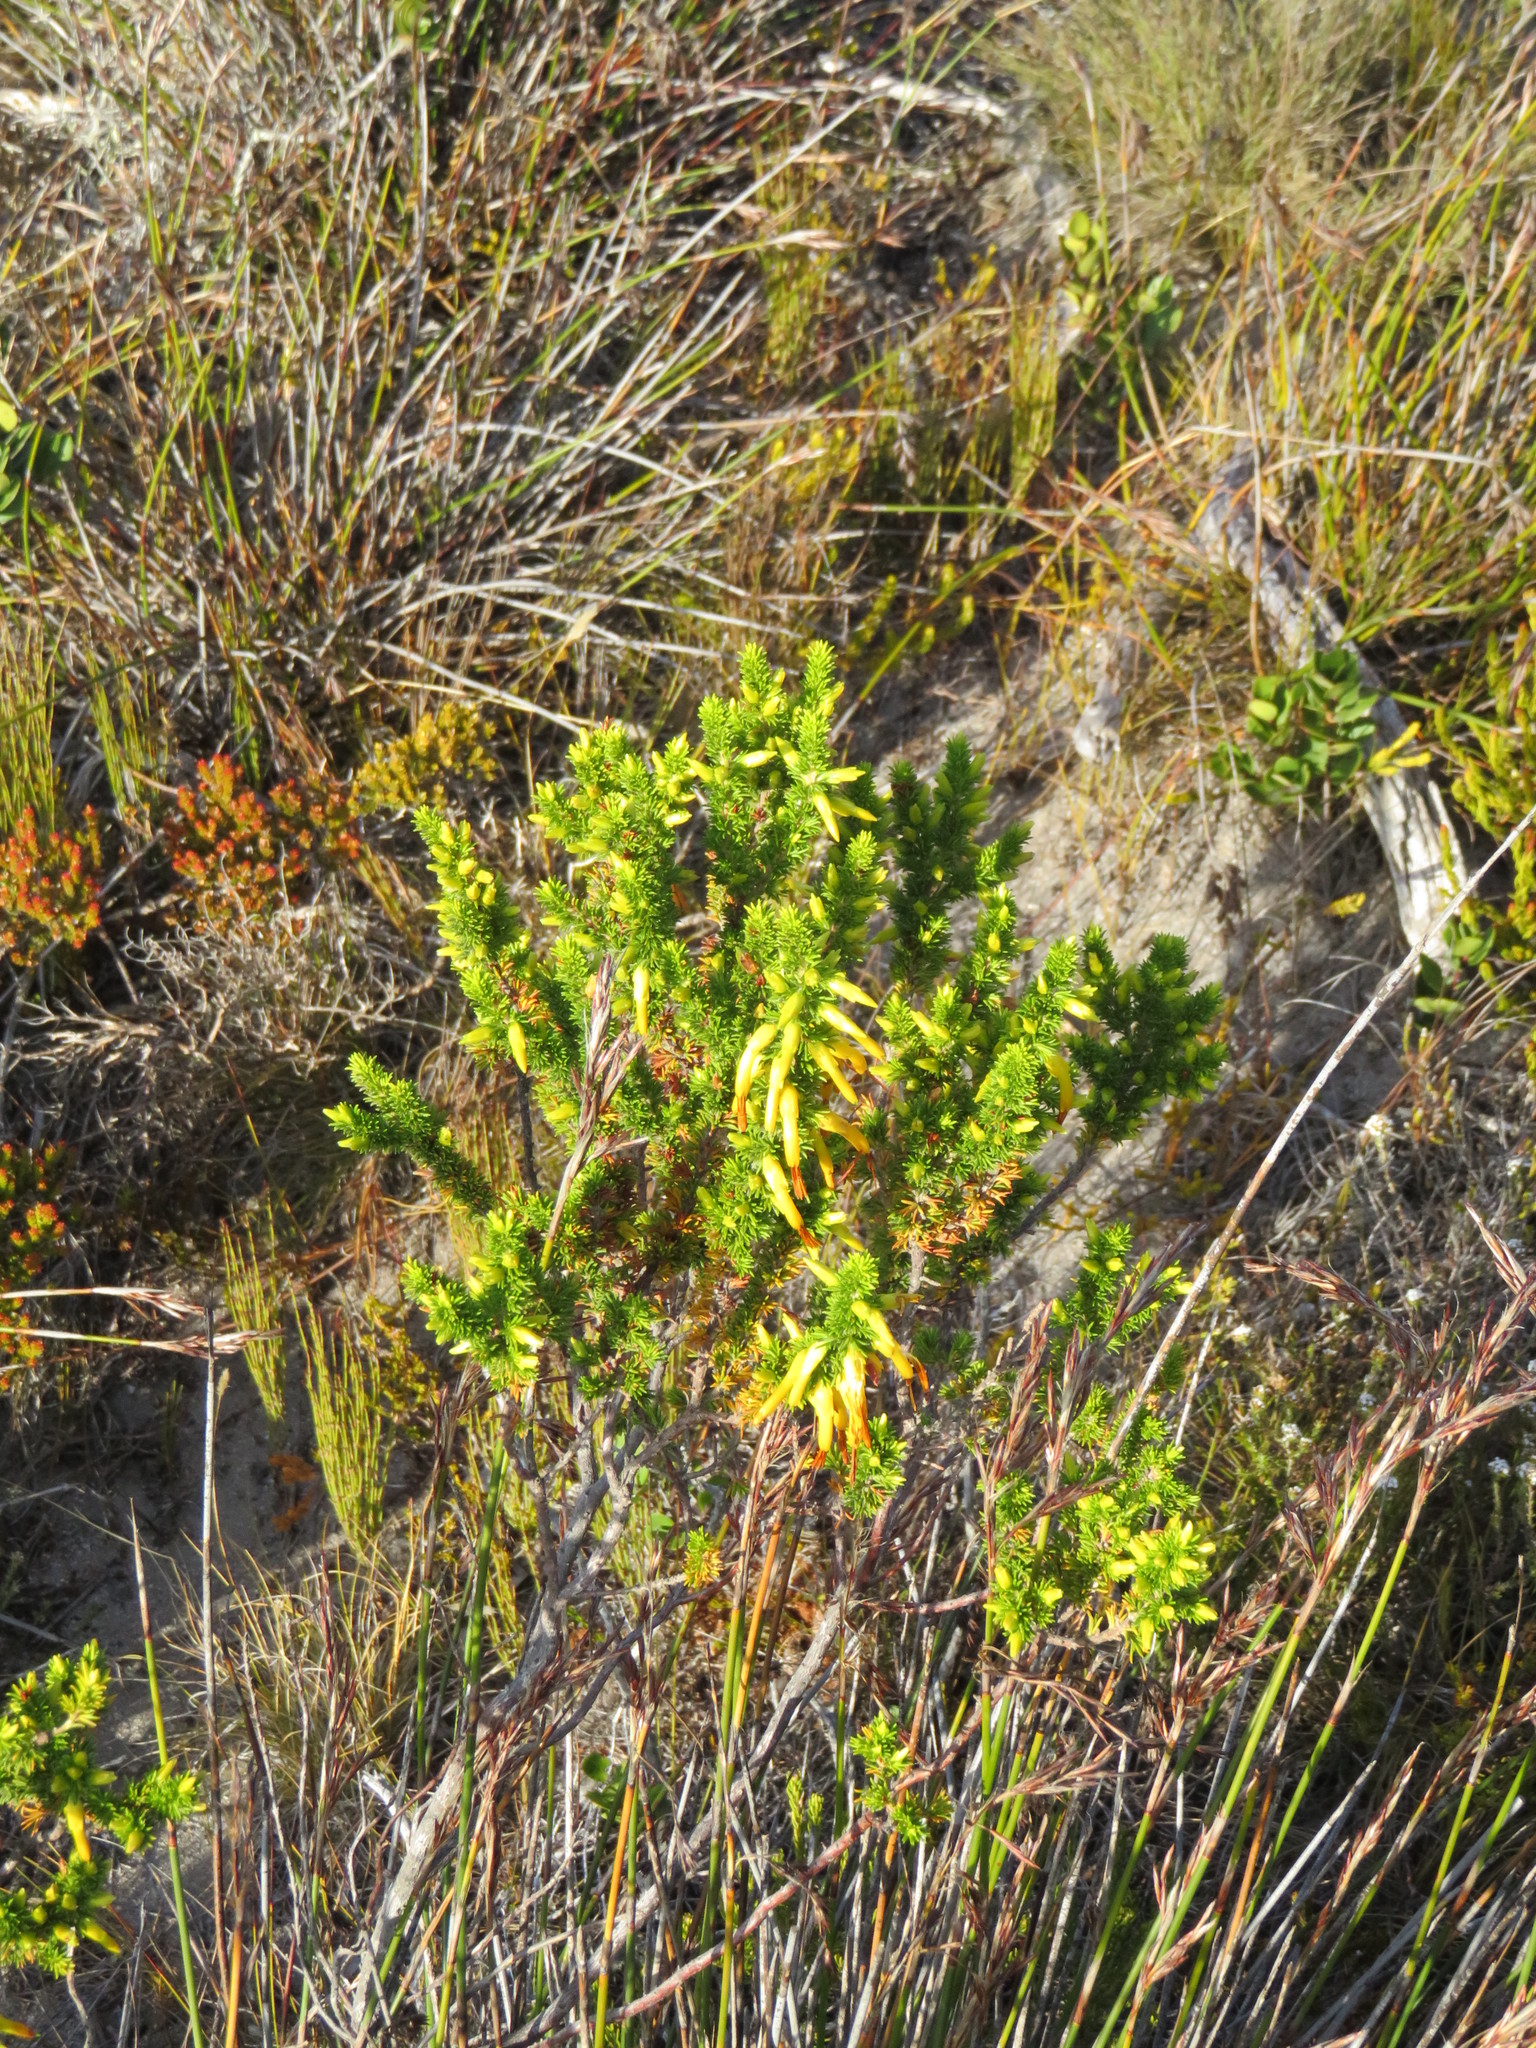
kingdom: Plantae
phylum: Tracheophyta
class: Magnoliopsida
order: Ericales
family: Ericaceae
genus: Erica
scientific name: Erica coccinea
